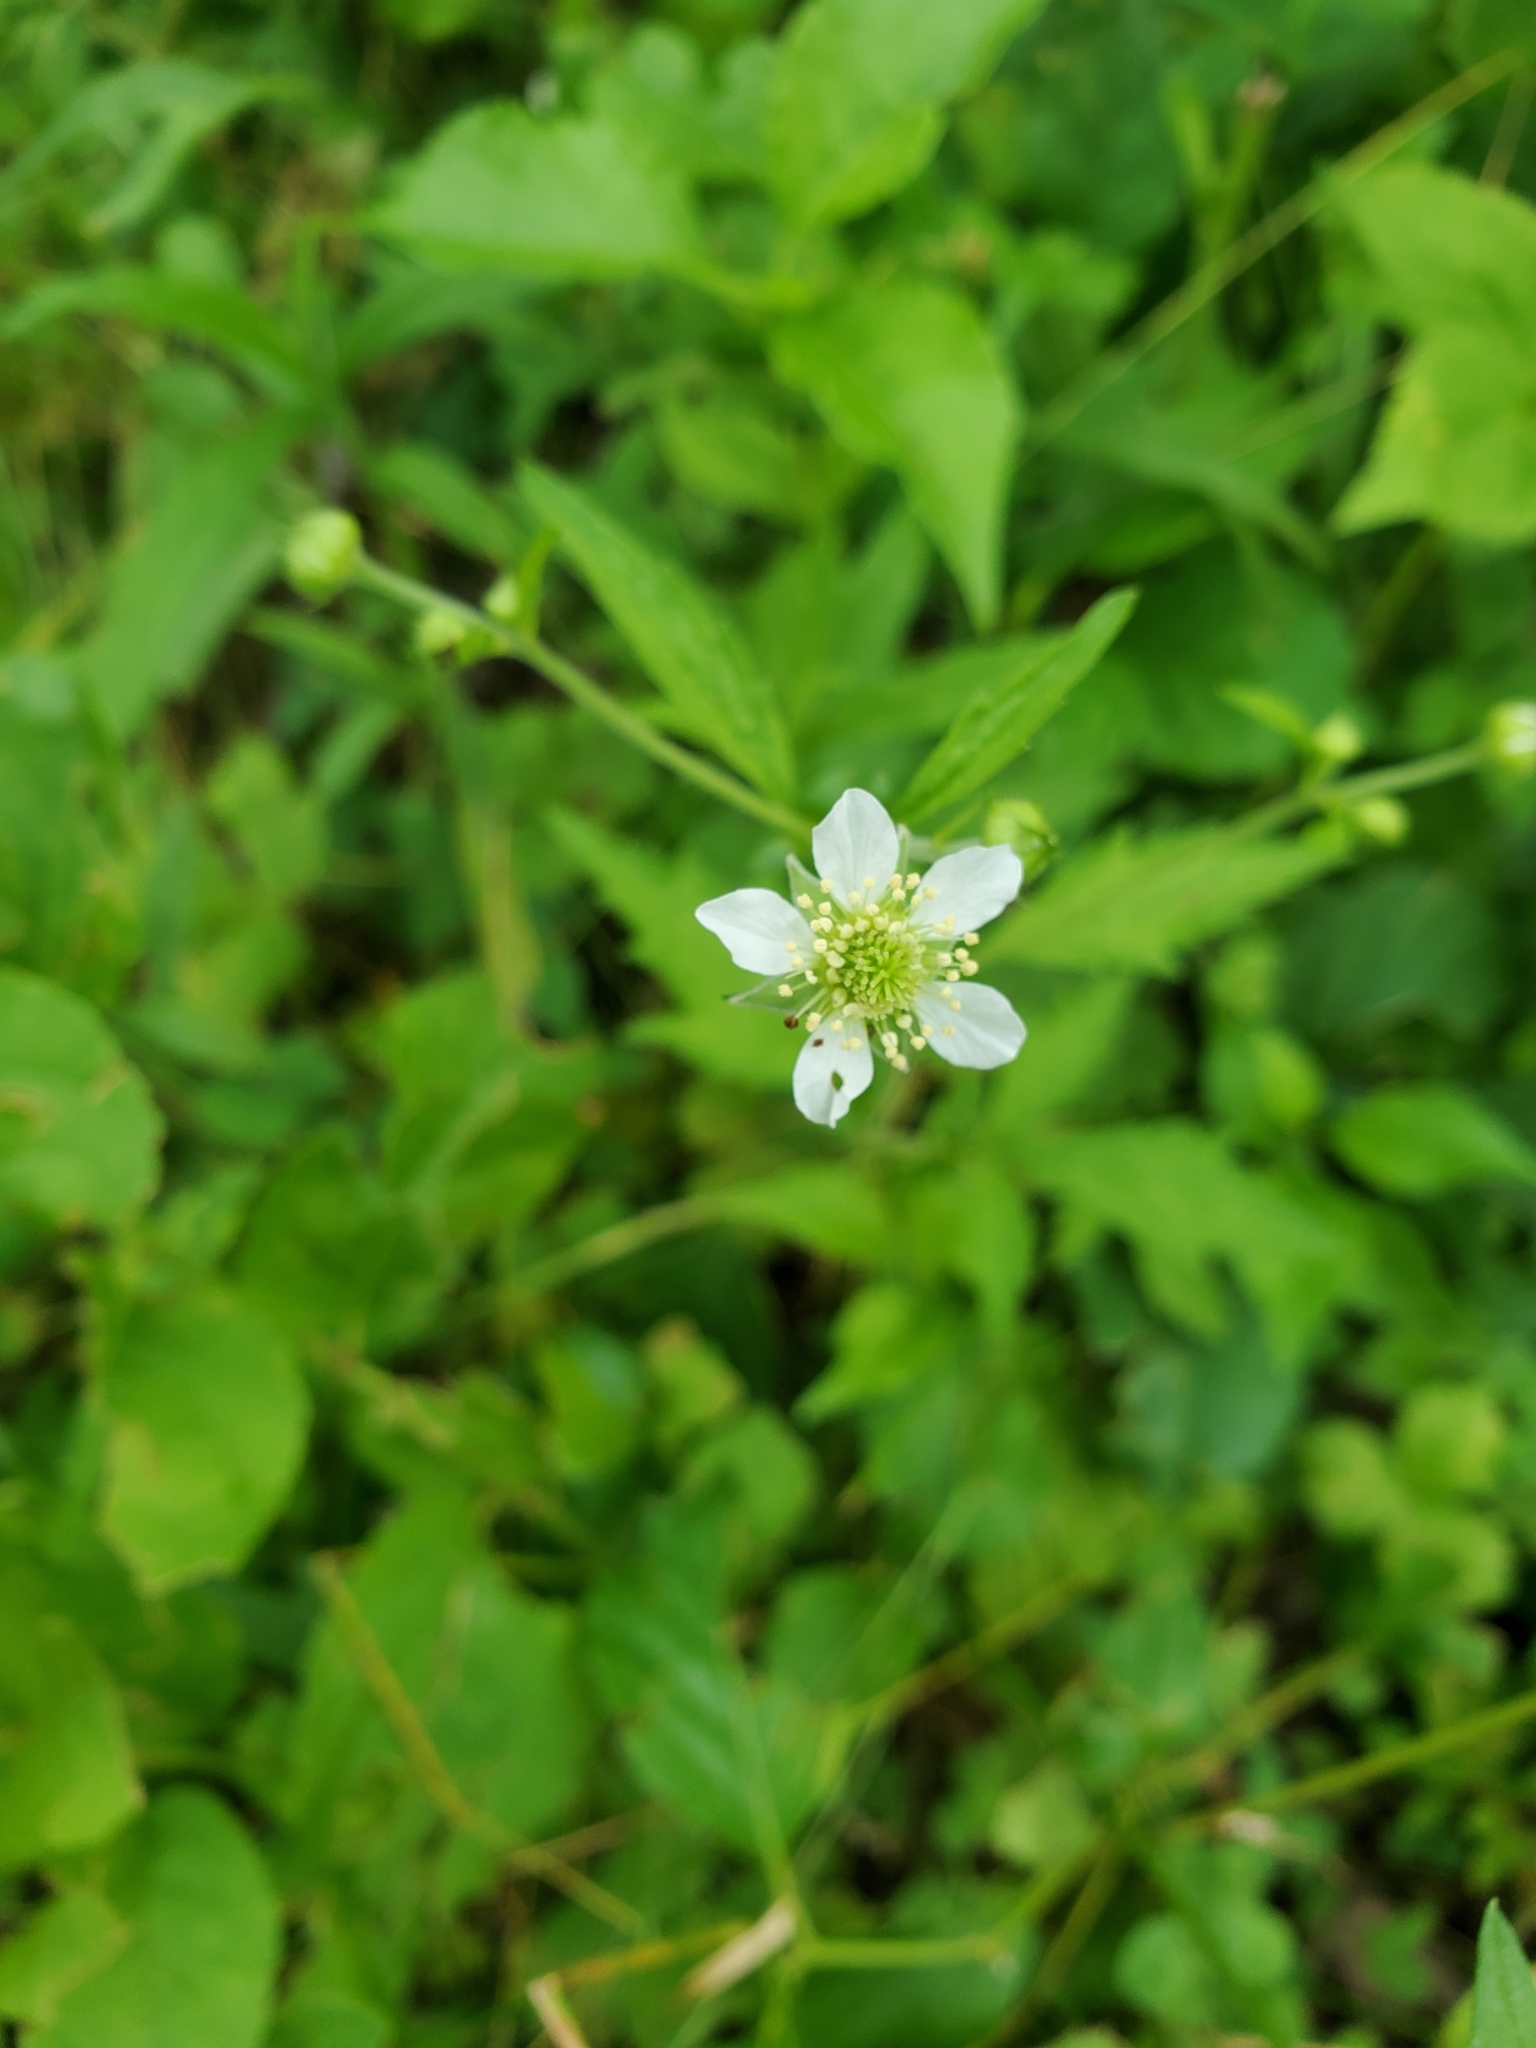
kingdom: Plantae
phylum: Tracheophyta
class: Magnoliopsida
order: Rosales
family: Rosaceae
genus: Geum
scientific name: Geum canadense
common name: White avens
